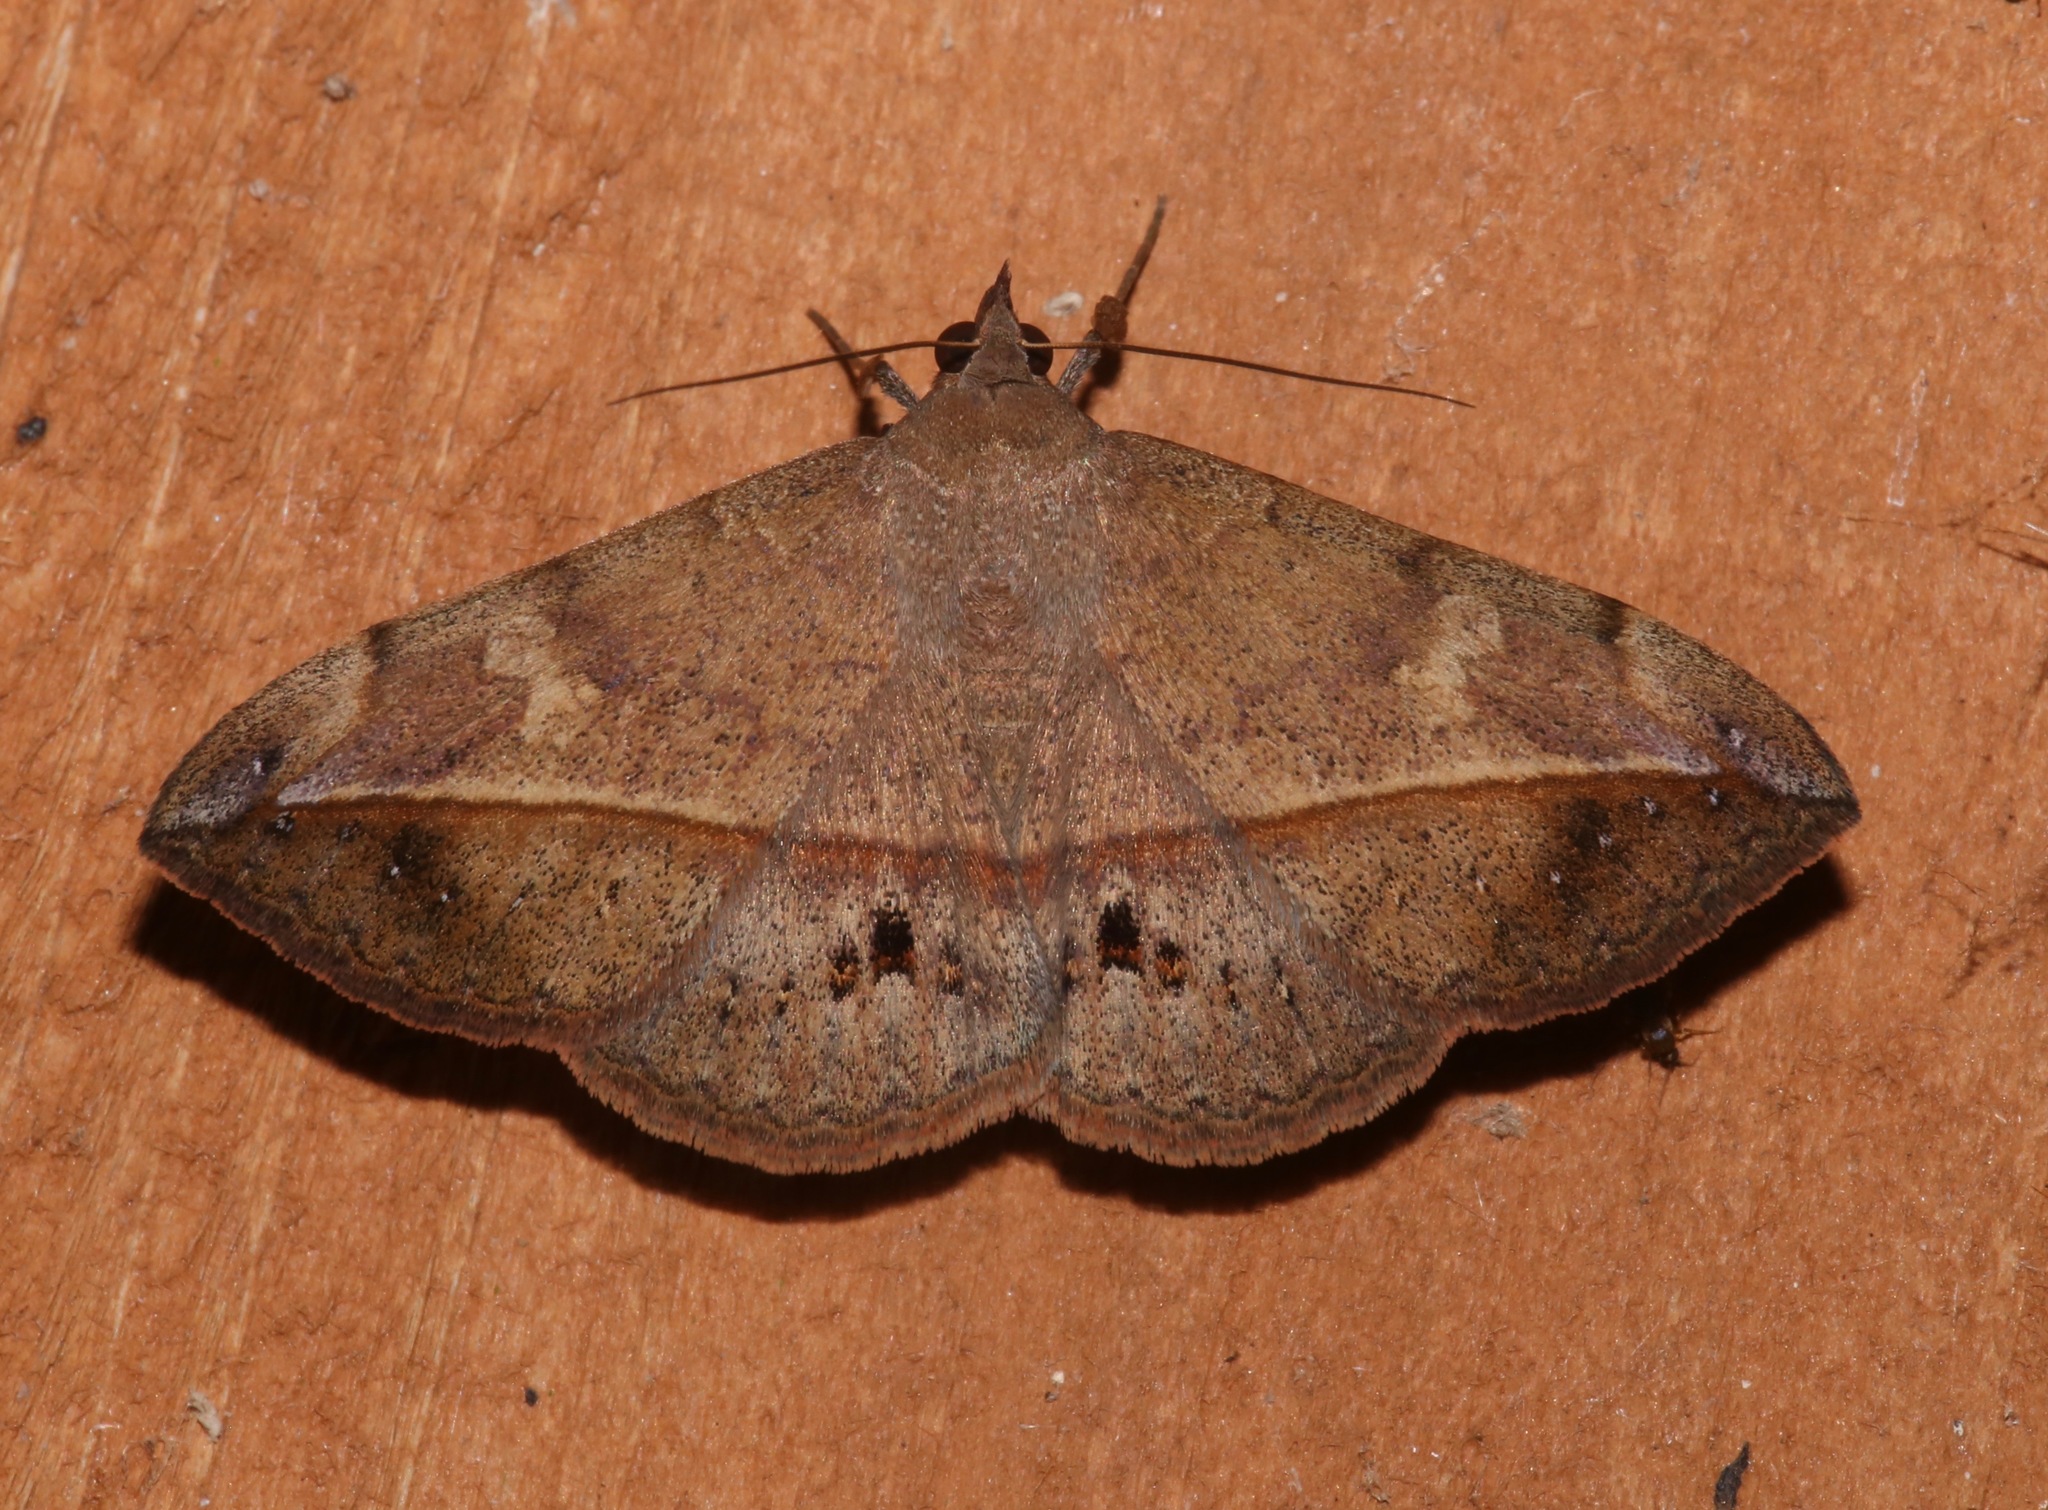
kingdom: Animalia
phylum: Arthropoda
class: Insecta
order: Lepidoptera
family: Erebidae
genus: Anticarsia
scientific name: Anticarsia gemmatalis
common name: Cutworm moth
